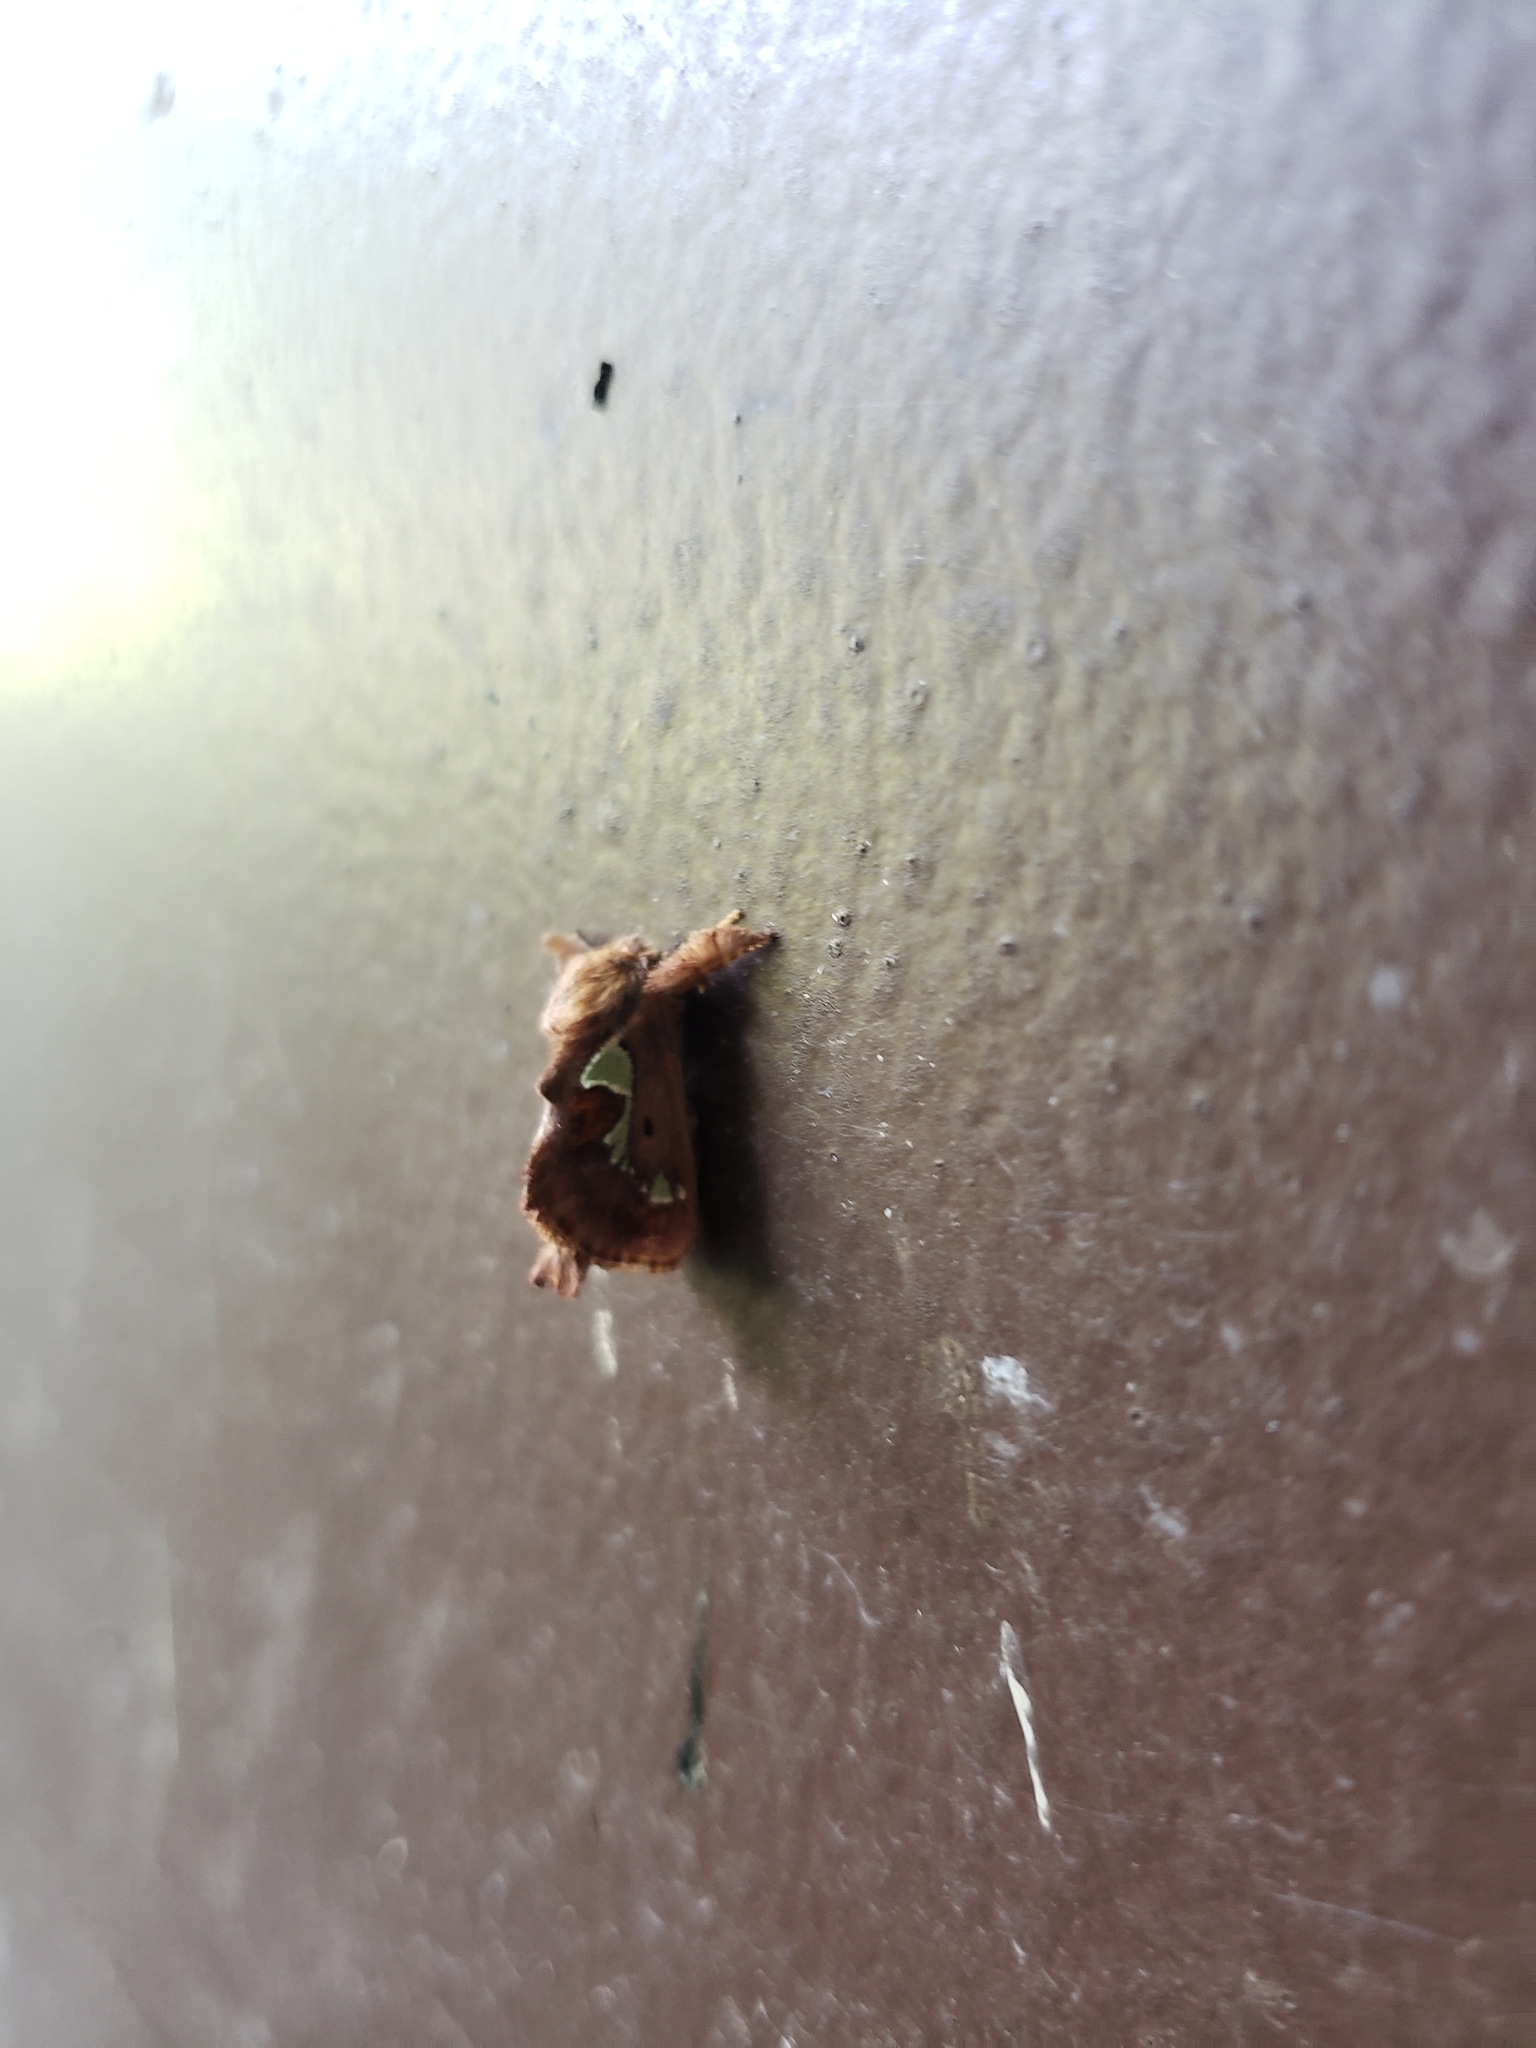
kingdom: Animalia
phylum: Arthropoda
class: Insecta
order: Lepidoptera
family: Limacodidae
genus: Euclea
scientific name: Euclea delphinii
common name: Spiny oak-slug moth
